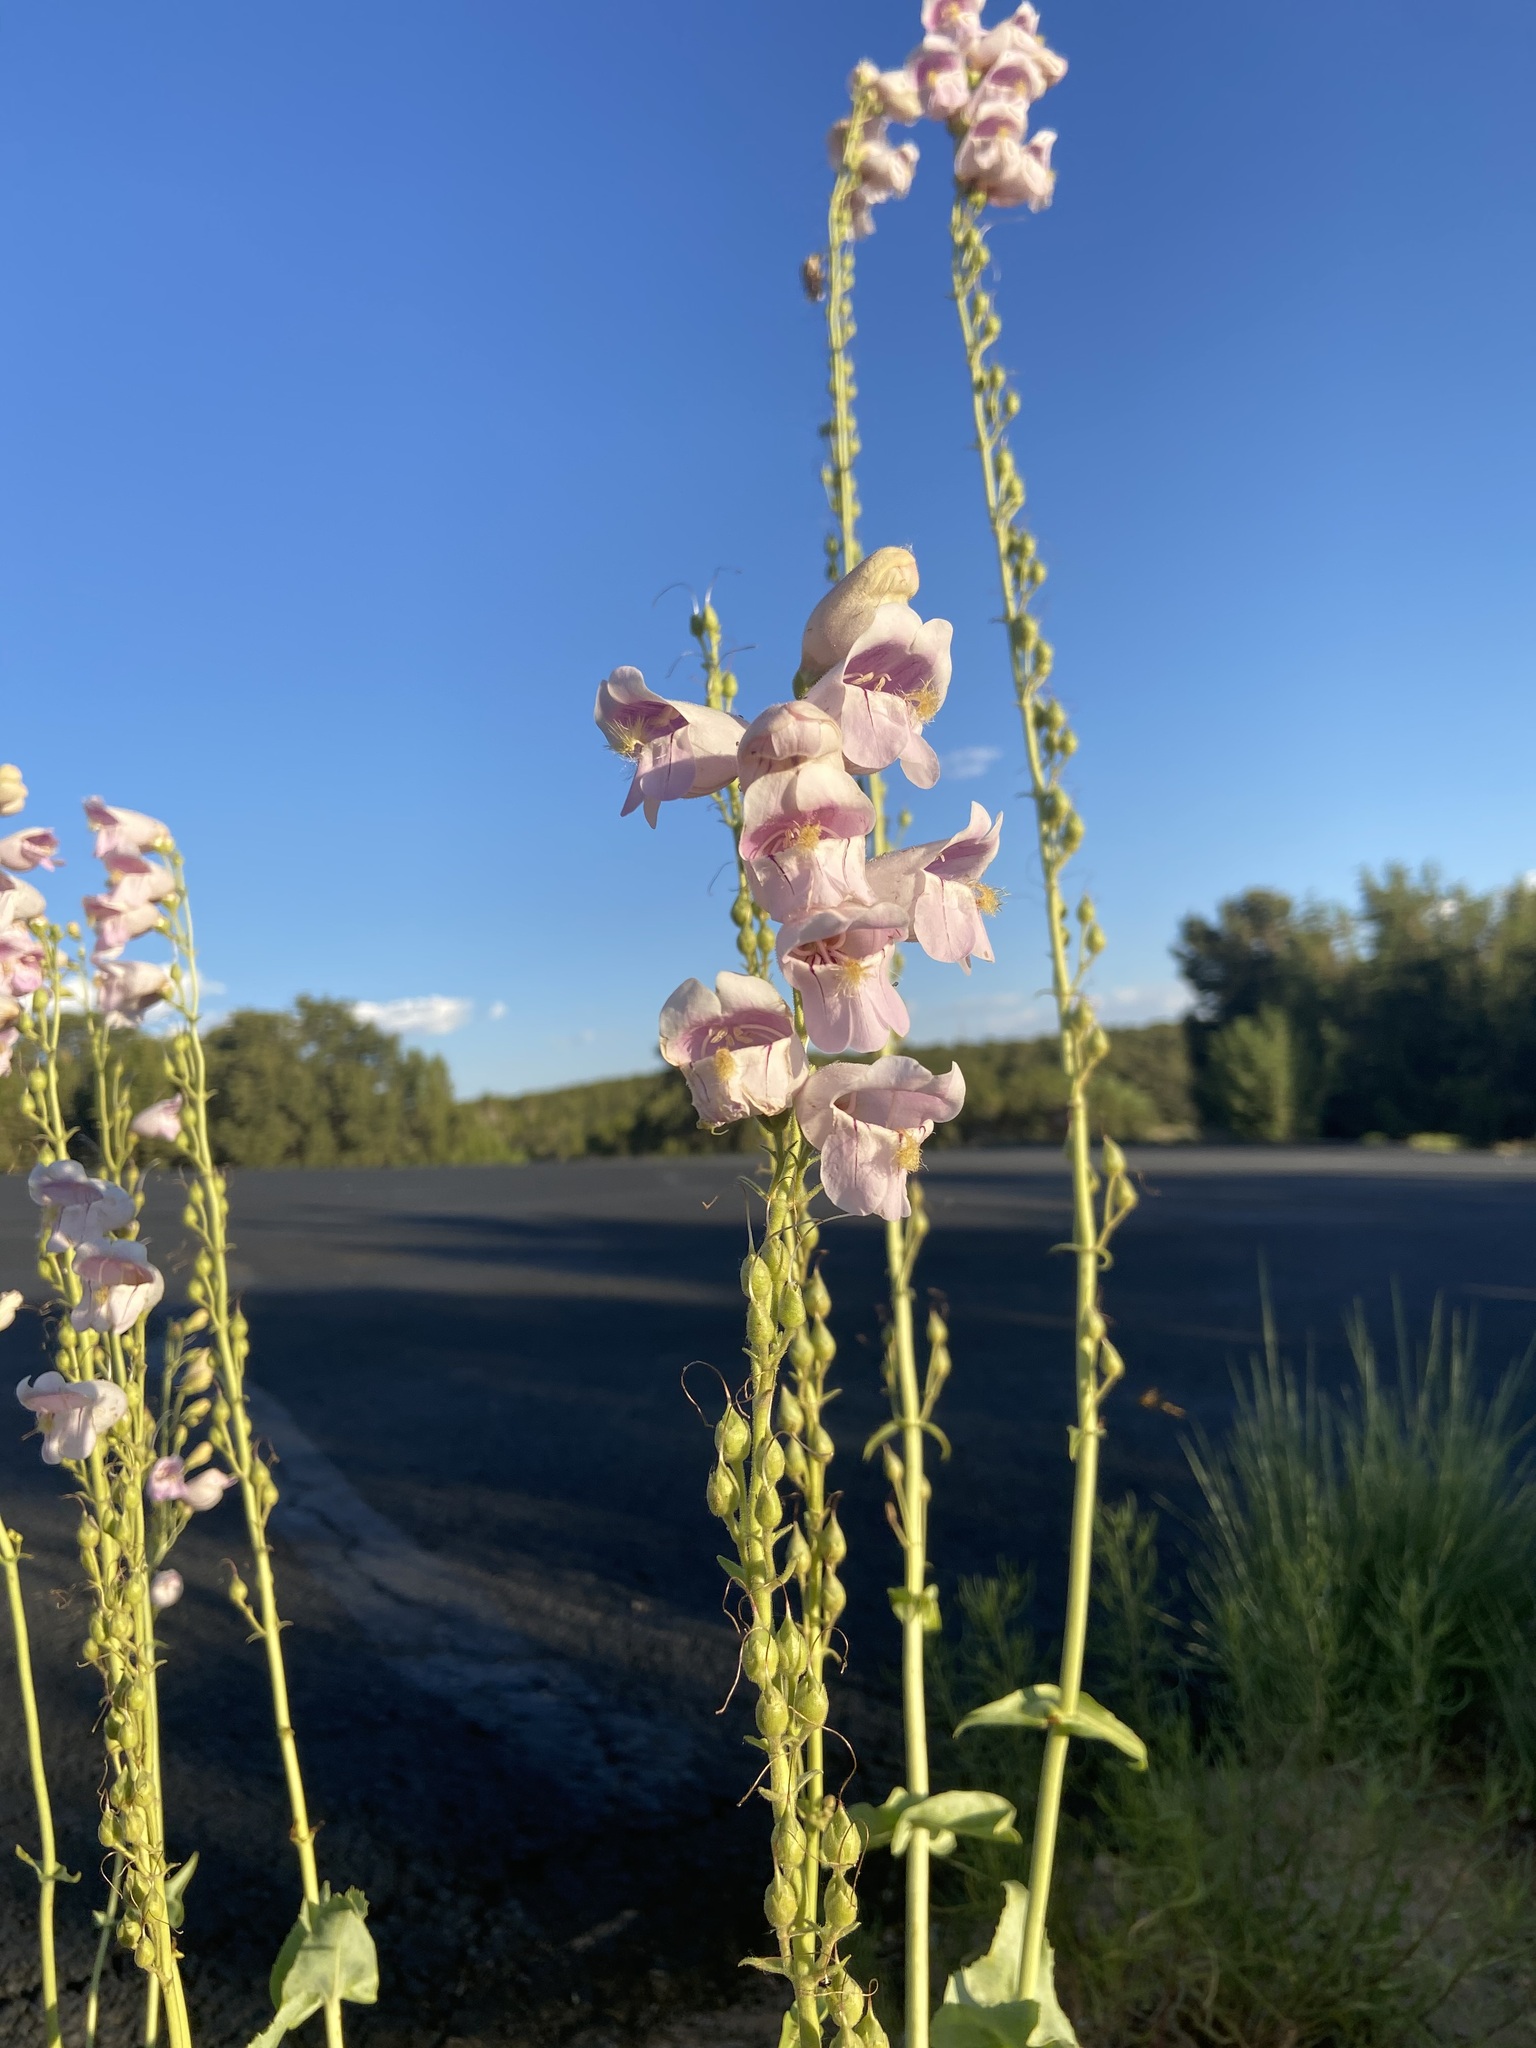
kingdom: Plantae
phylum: Tracheophyta
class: Magnoliopsida
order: Lamiales
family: Plantaginaceae
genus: Penstemon
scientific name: Penstemon palmeri
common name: Palmer penstemon
